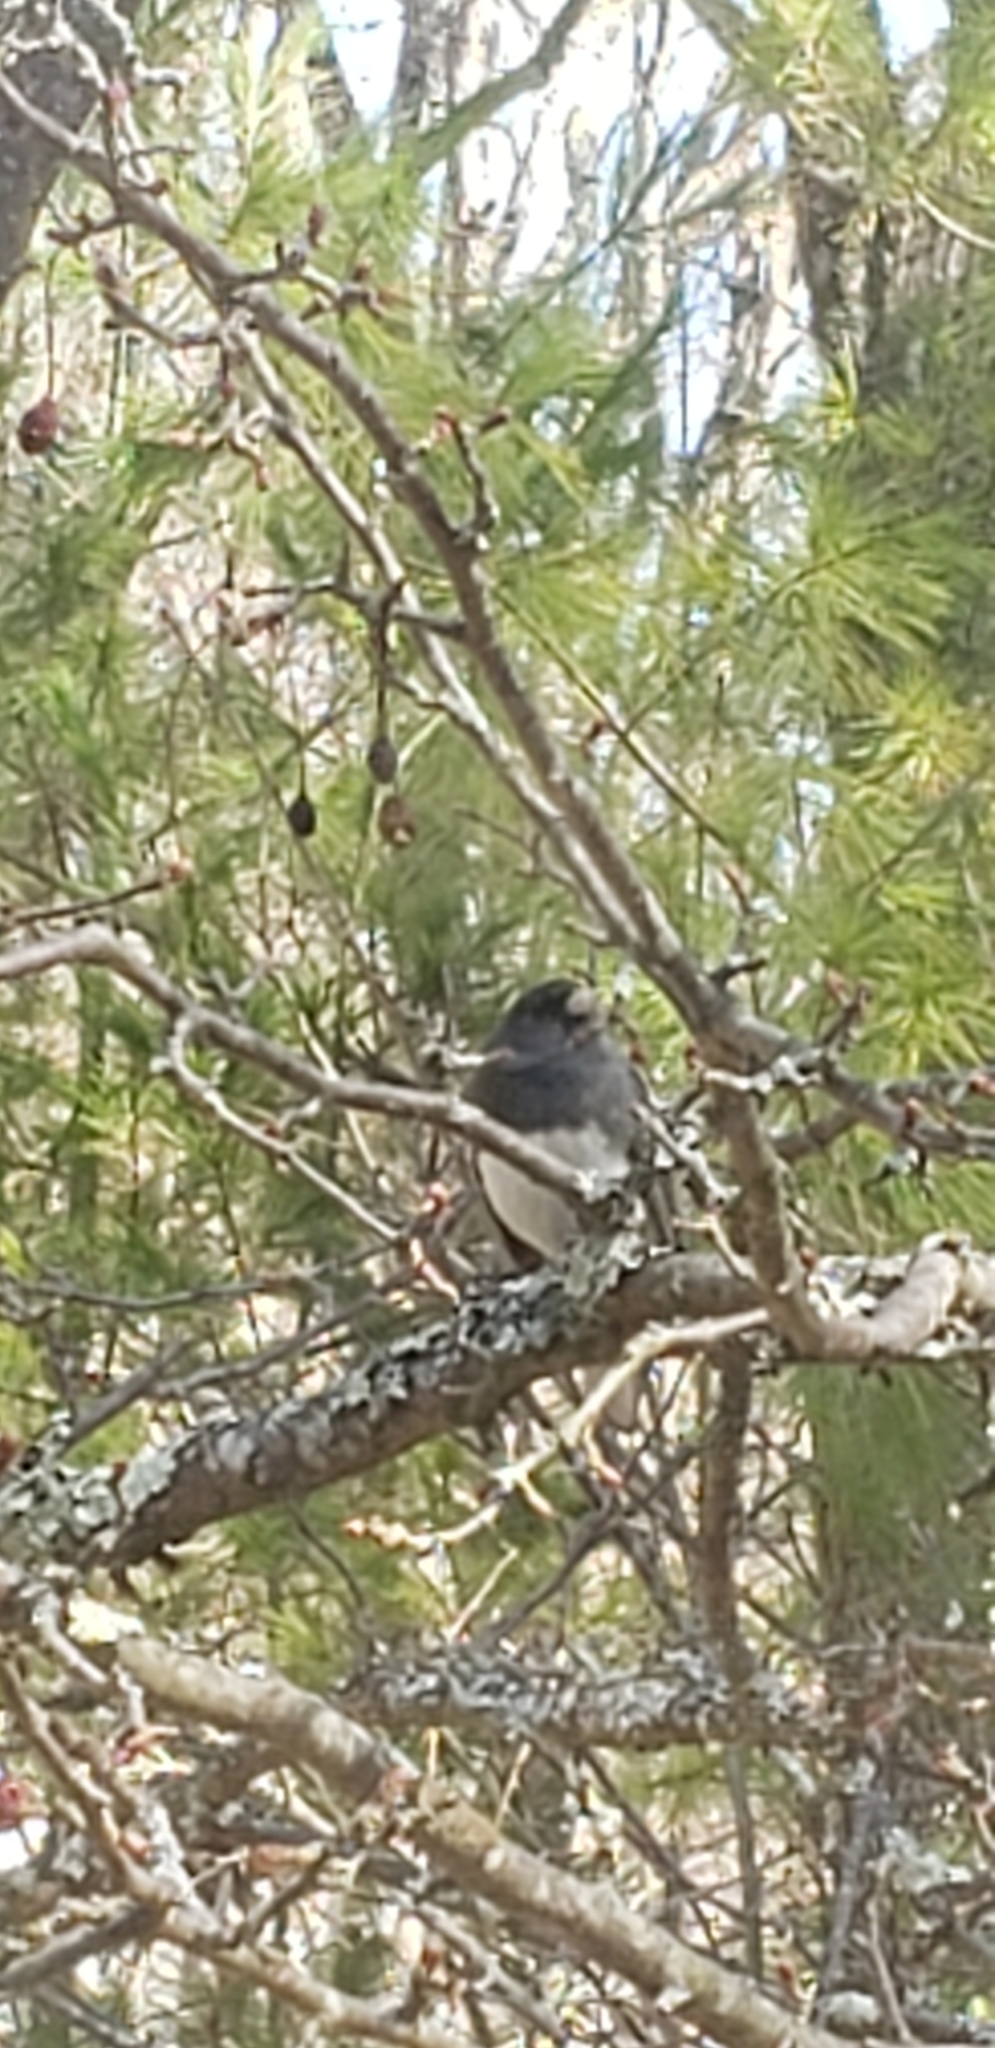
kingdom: Animalia
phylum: Chordata
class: Aves
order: Passeriformes
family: Passerellidae
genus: Junco
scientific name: Junco hyemalis
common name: Dark-eyed junco
